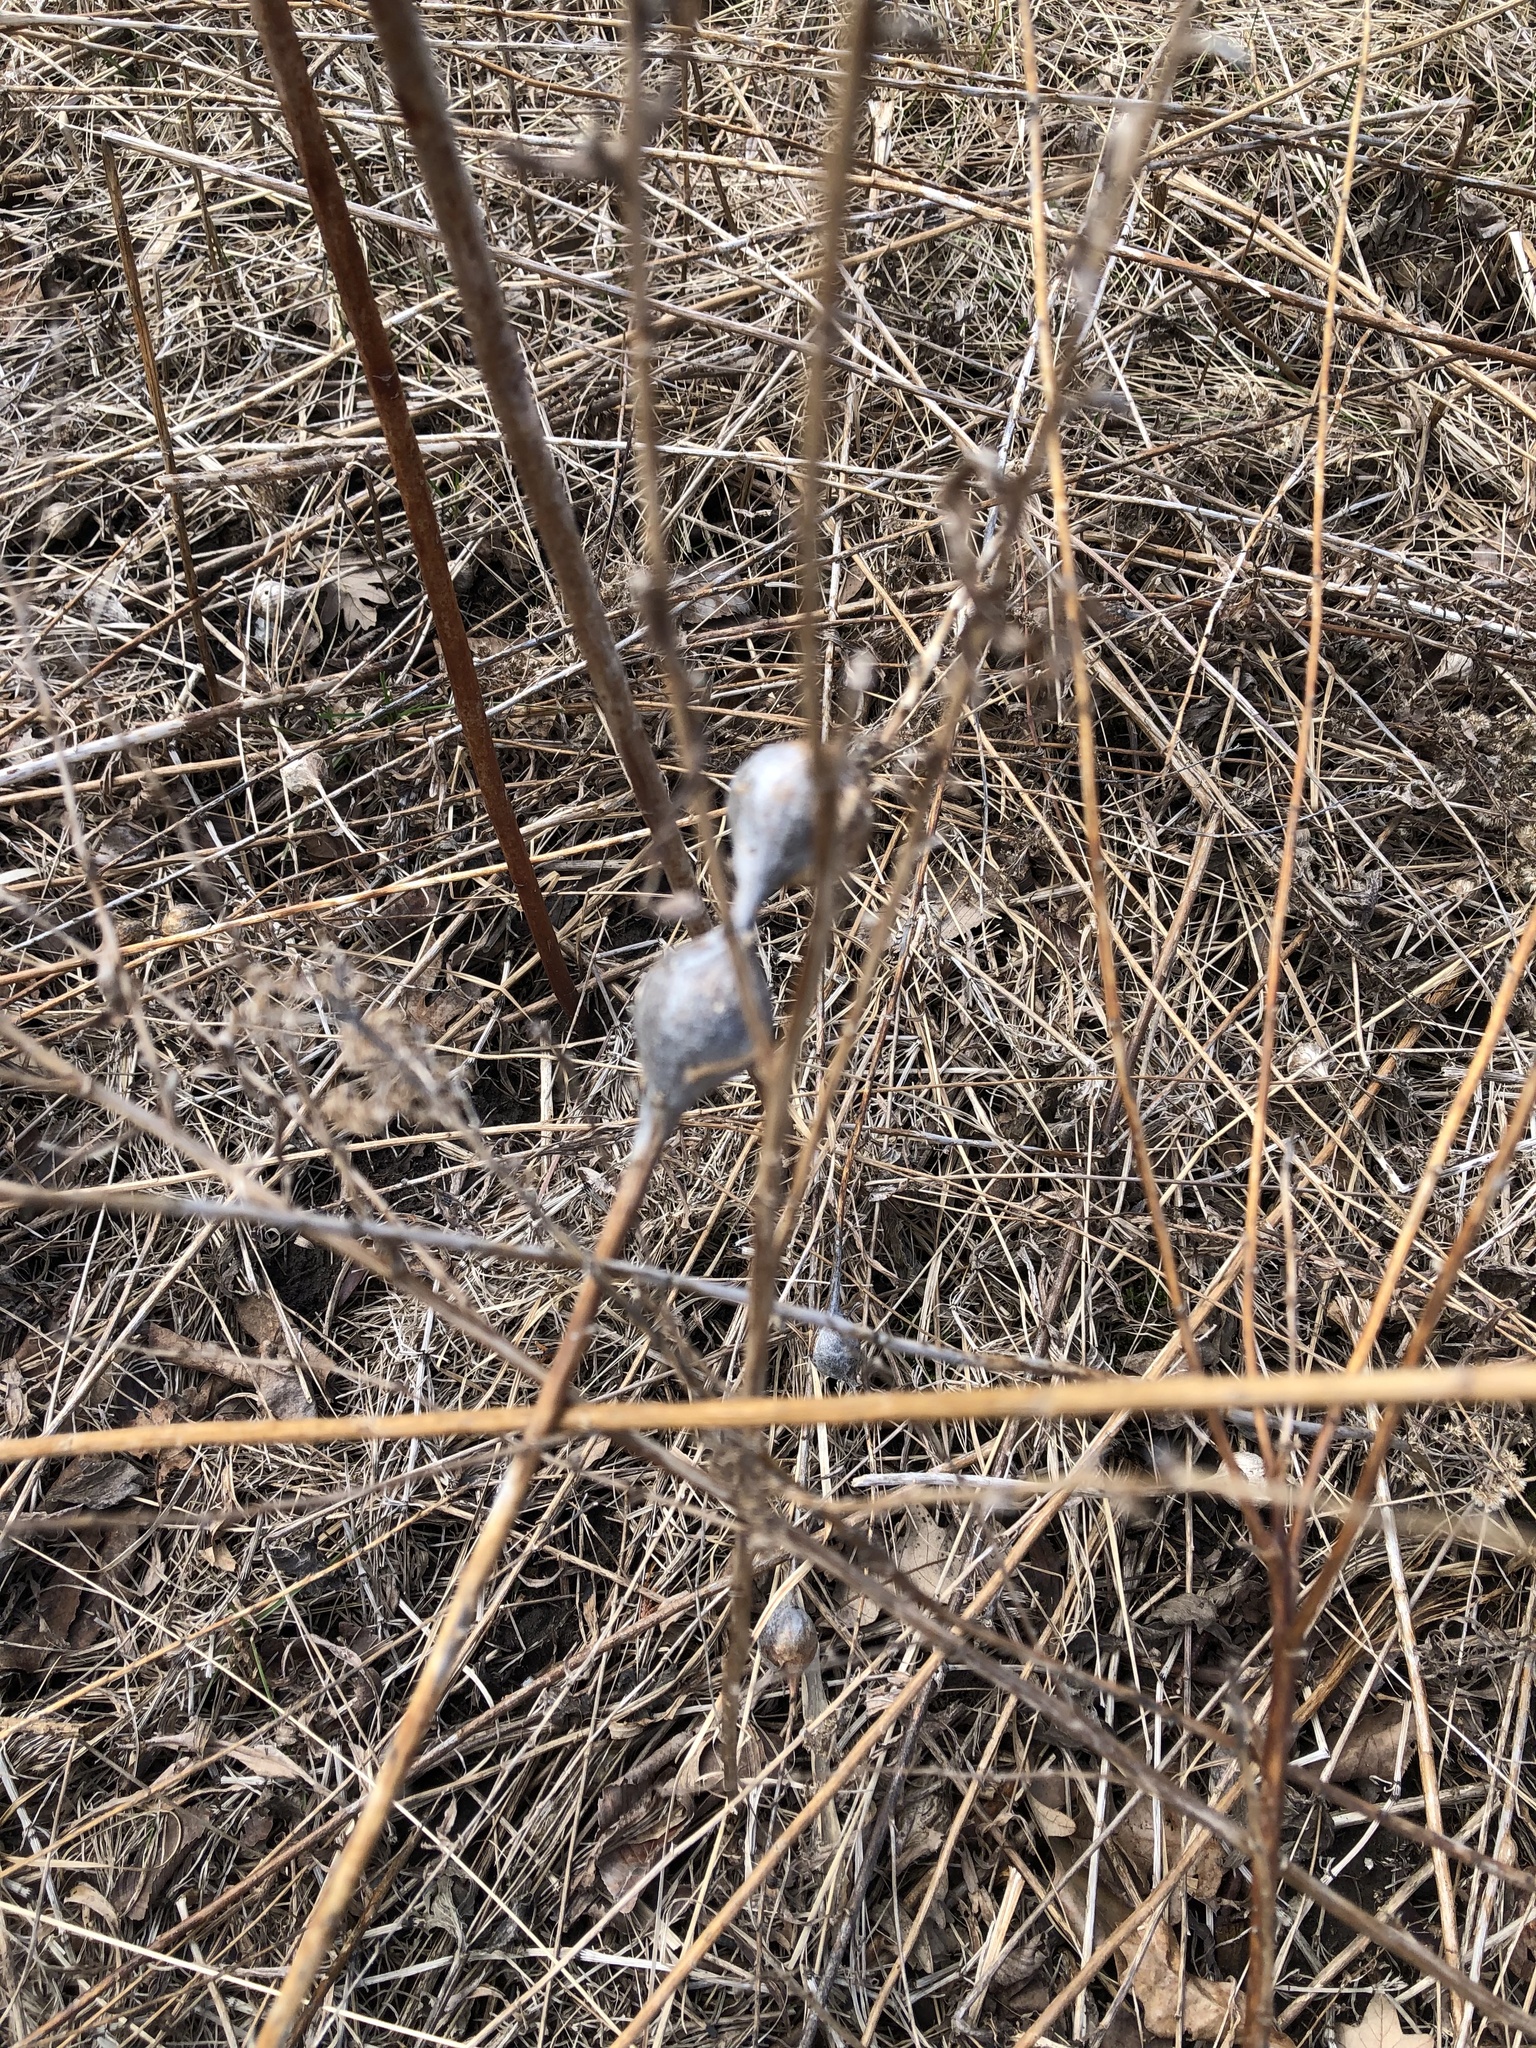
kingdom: Animalia
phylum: Arthropoda
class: Insecta
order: Diptera
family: Tephritidae
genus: Eurosta
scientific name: Eurosta solidaginis
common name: Goldenrod gall fly
